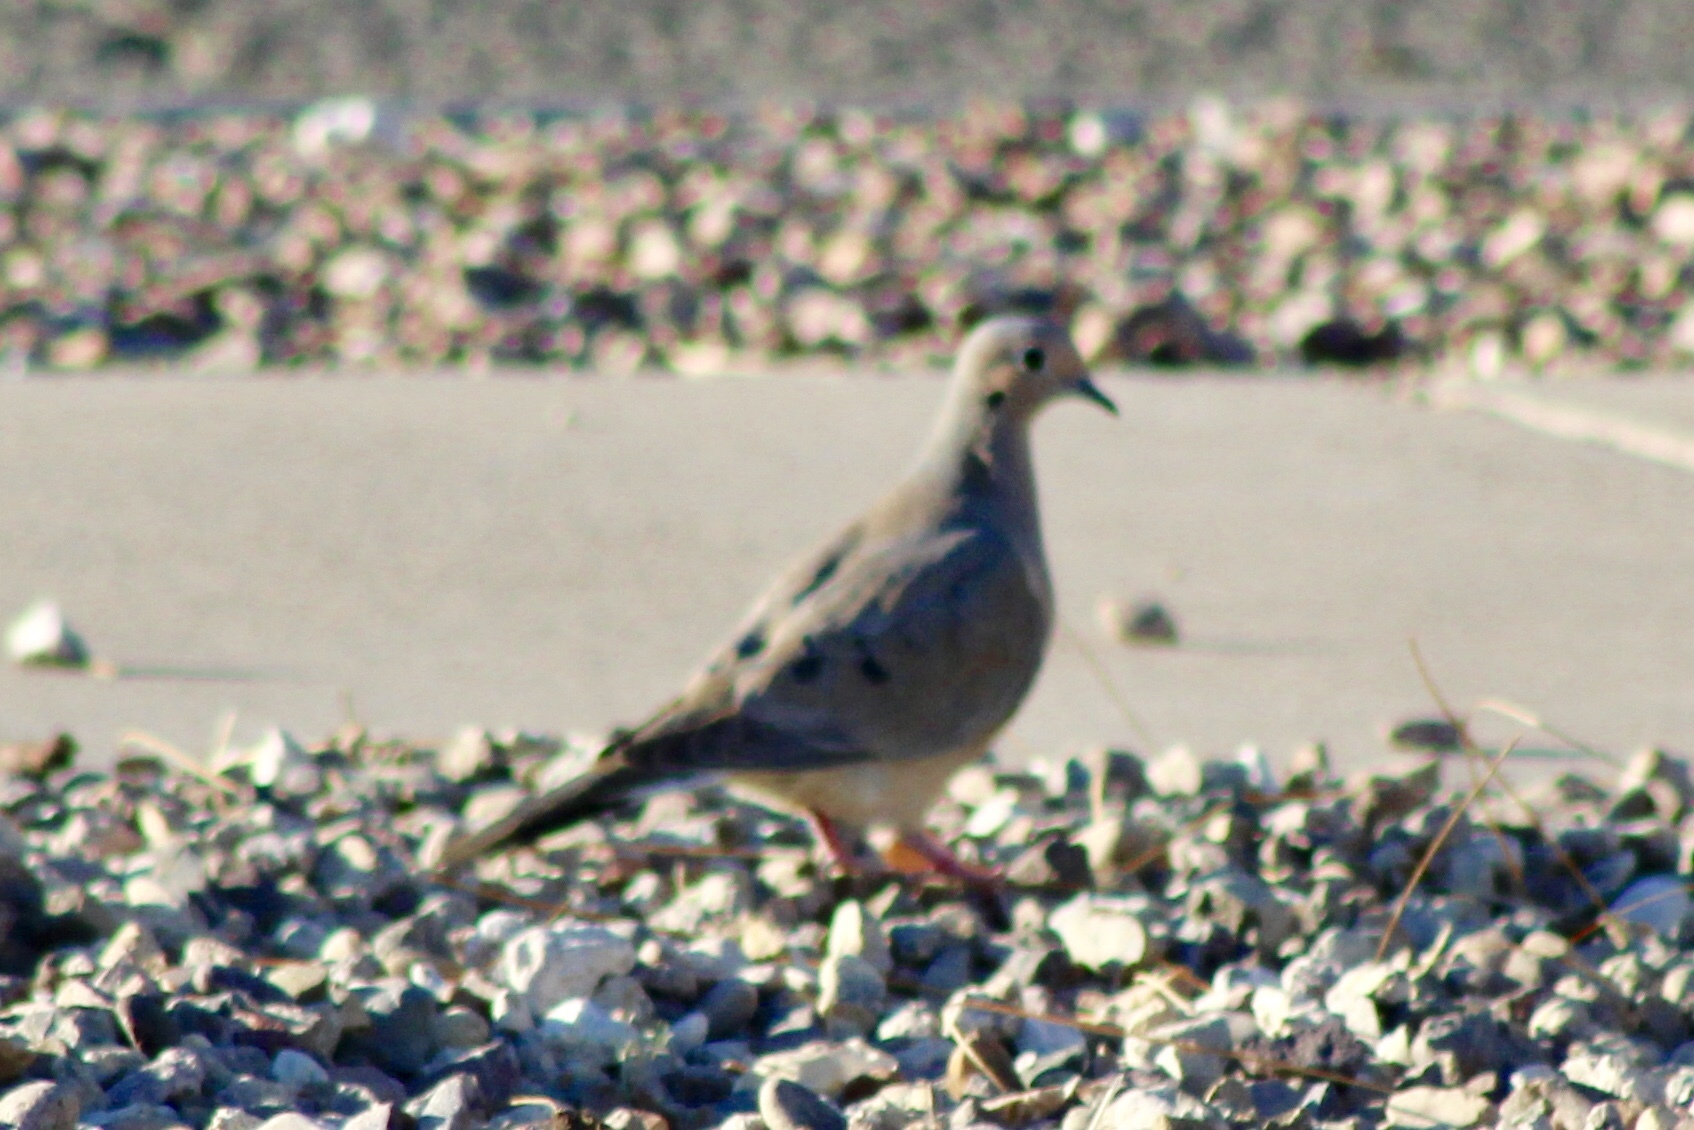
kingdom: Animalia
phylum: Chordata
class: Aves
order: Columbiformes
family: Columbidae
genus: Zenaida
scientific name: Zenaida macroura
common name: Mourning dove
